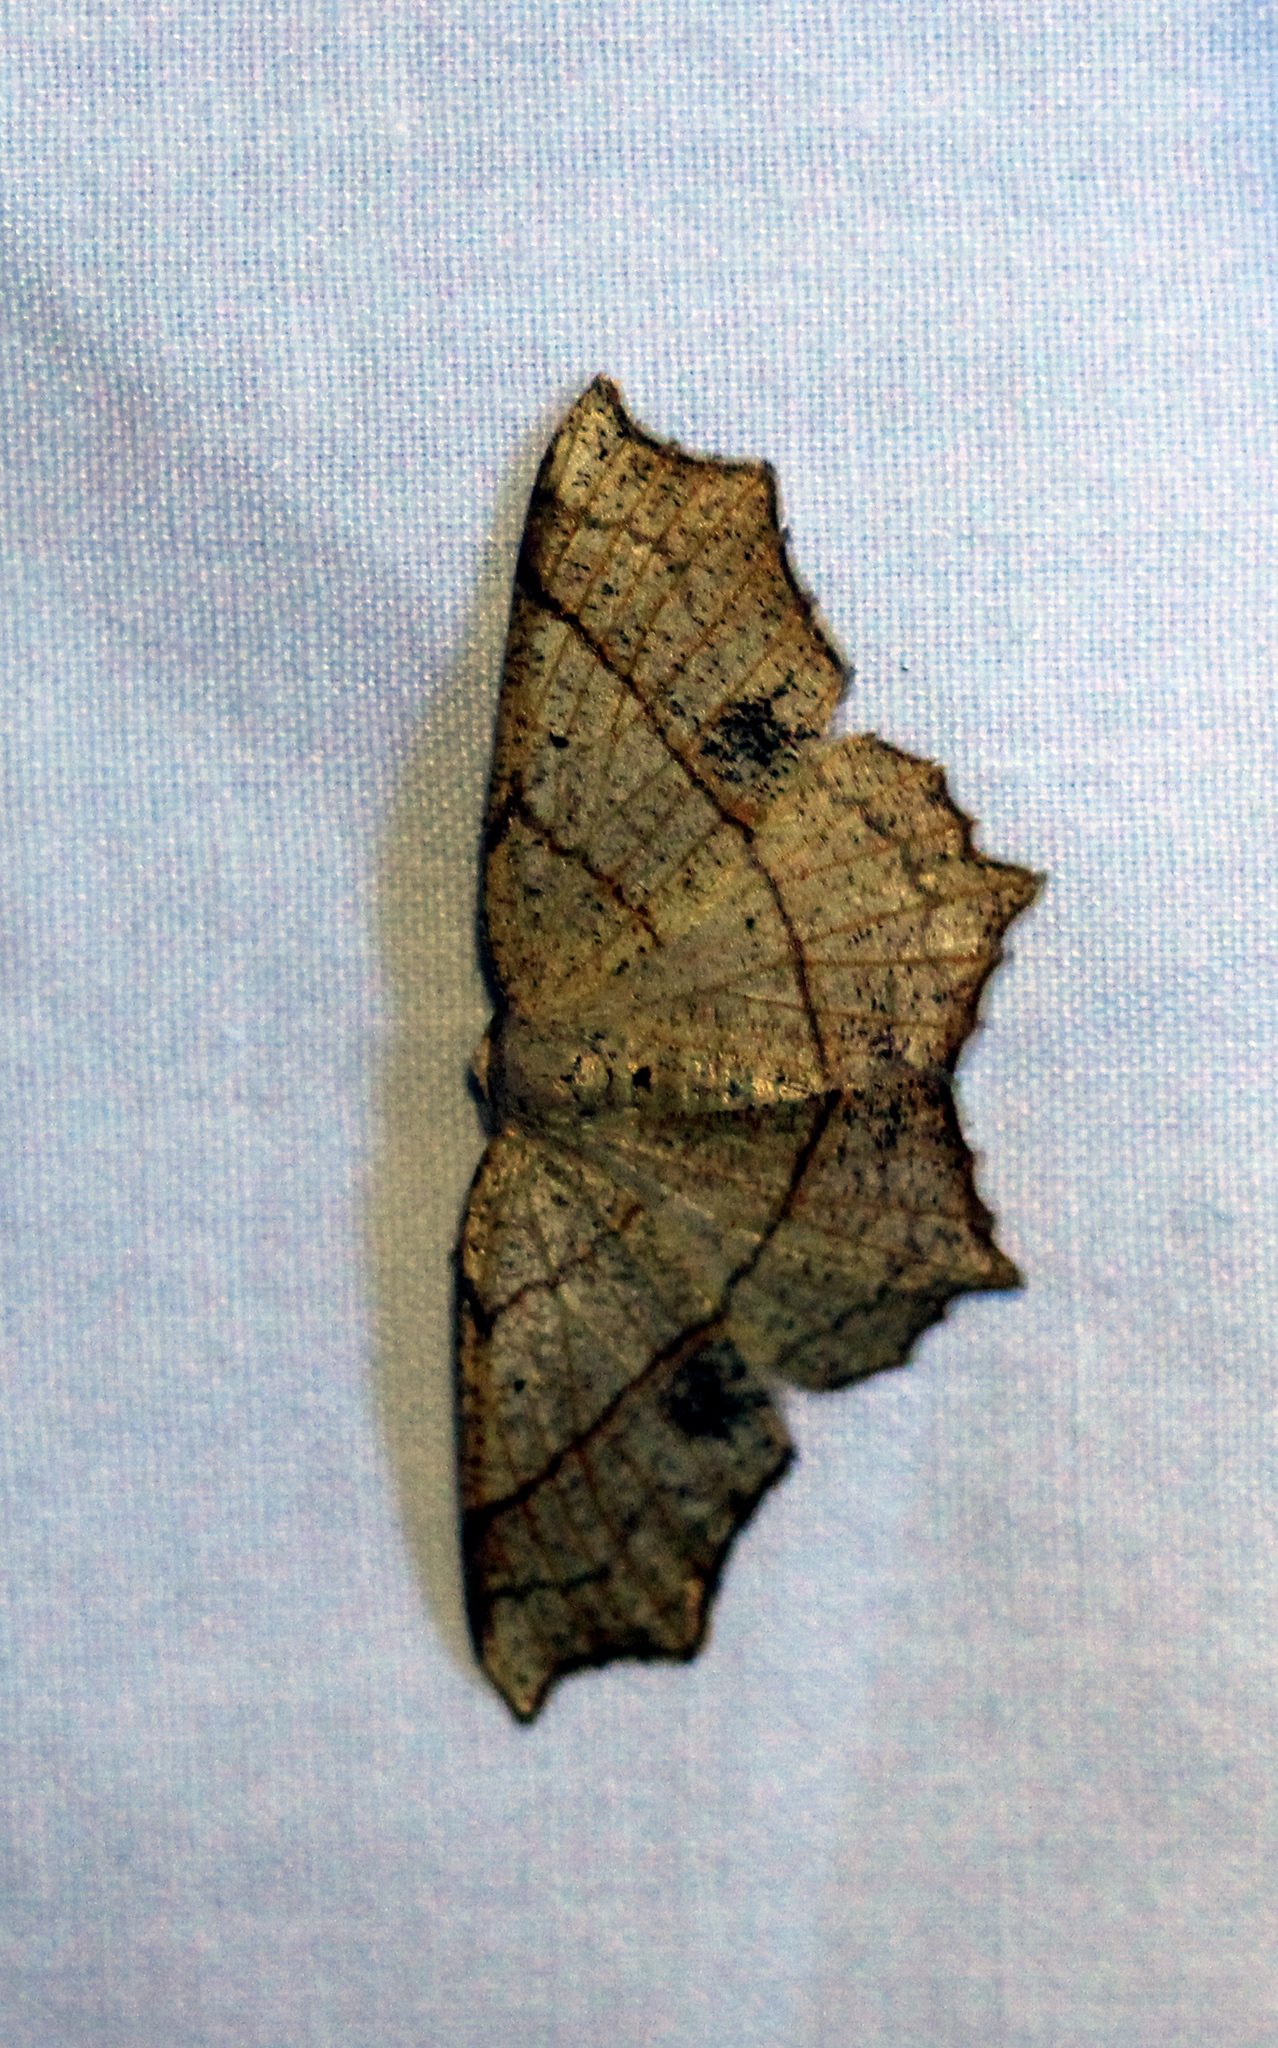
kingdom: Animalia
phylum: Arthropoda
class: Insecta
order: Lepidoptera
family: Geometridae
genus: Besma
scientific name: Besma quercivoraria
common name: Oak besma
